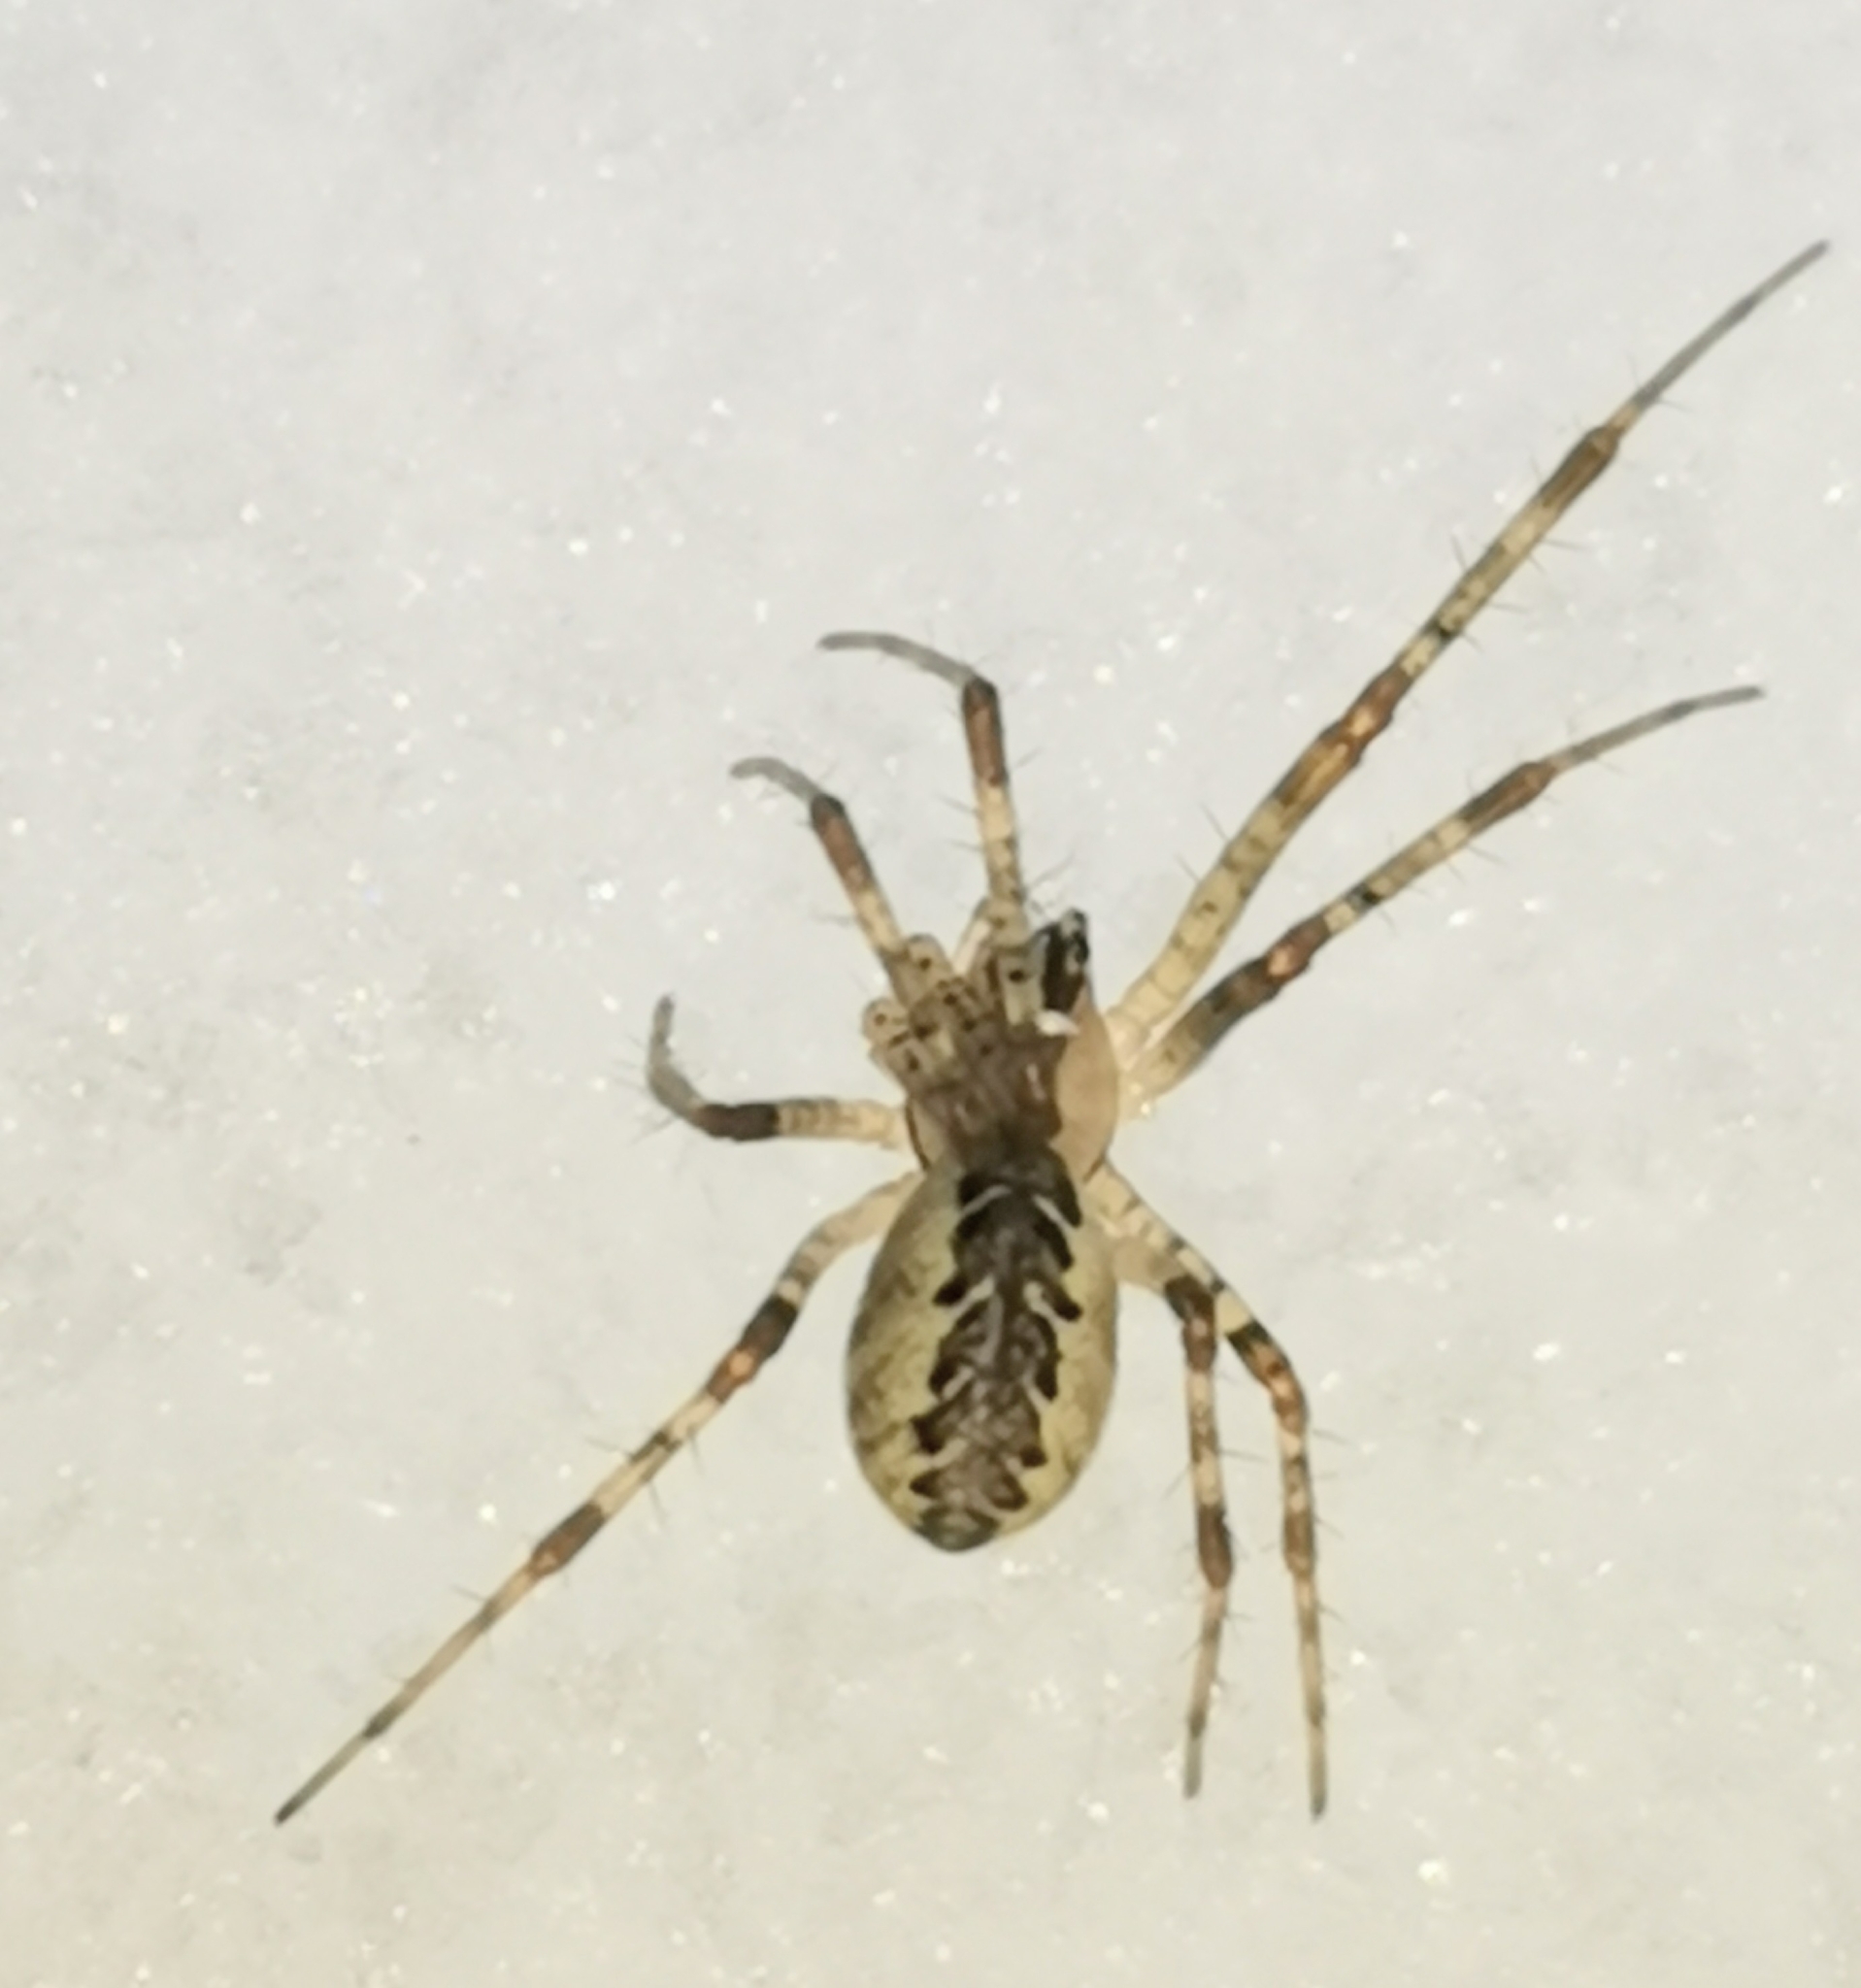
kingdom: Animalia
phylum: Arthropoda
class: Arachnida
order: Araneae
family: Linyphiidae
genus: Pityohyphantes
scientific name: Pityohyphantes phrygianus
